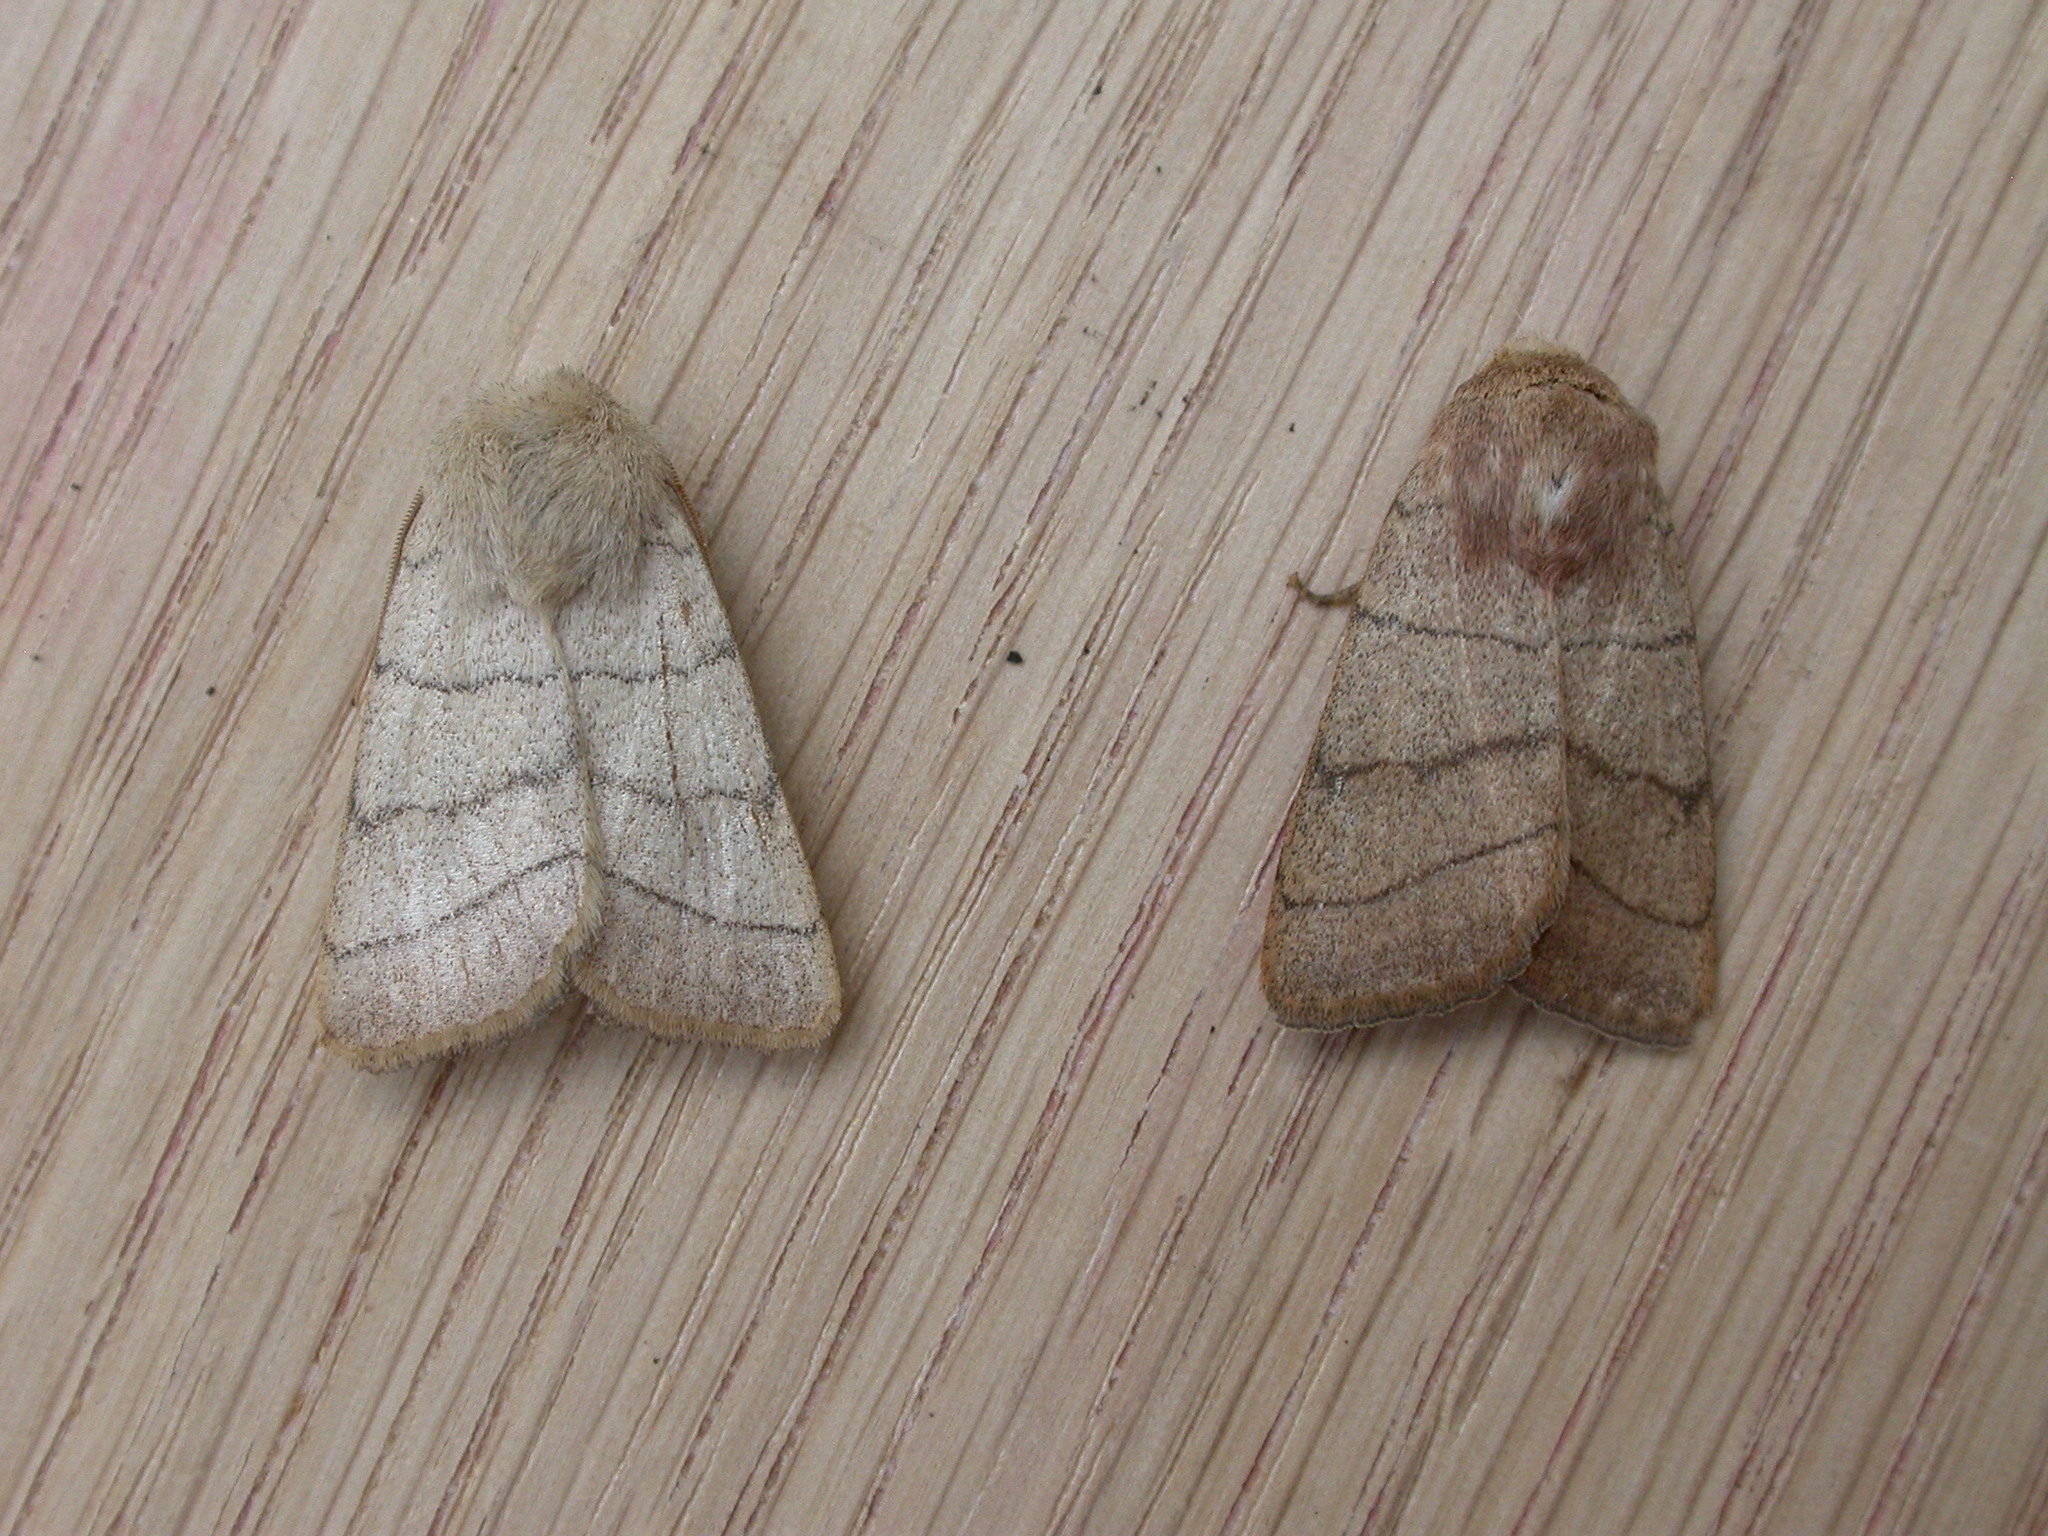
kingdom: Animalia
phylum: Arthropoda
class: Insecta
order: Lepidoptera
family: Noctuidae
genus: Charanyca
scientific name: Charanyca trigrammica
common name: Treble lines
